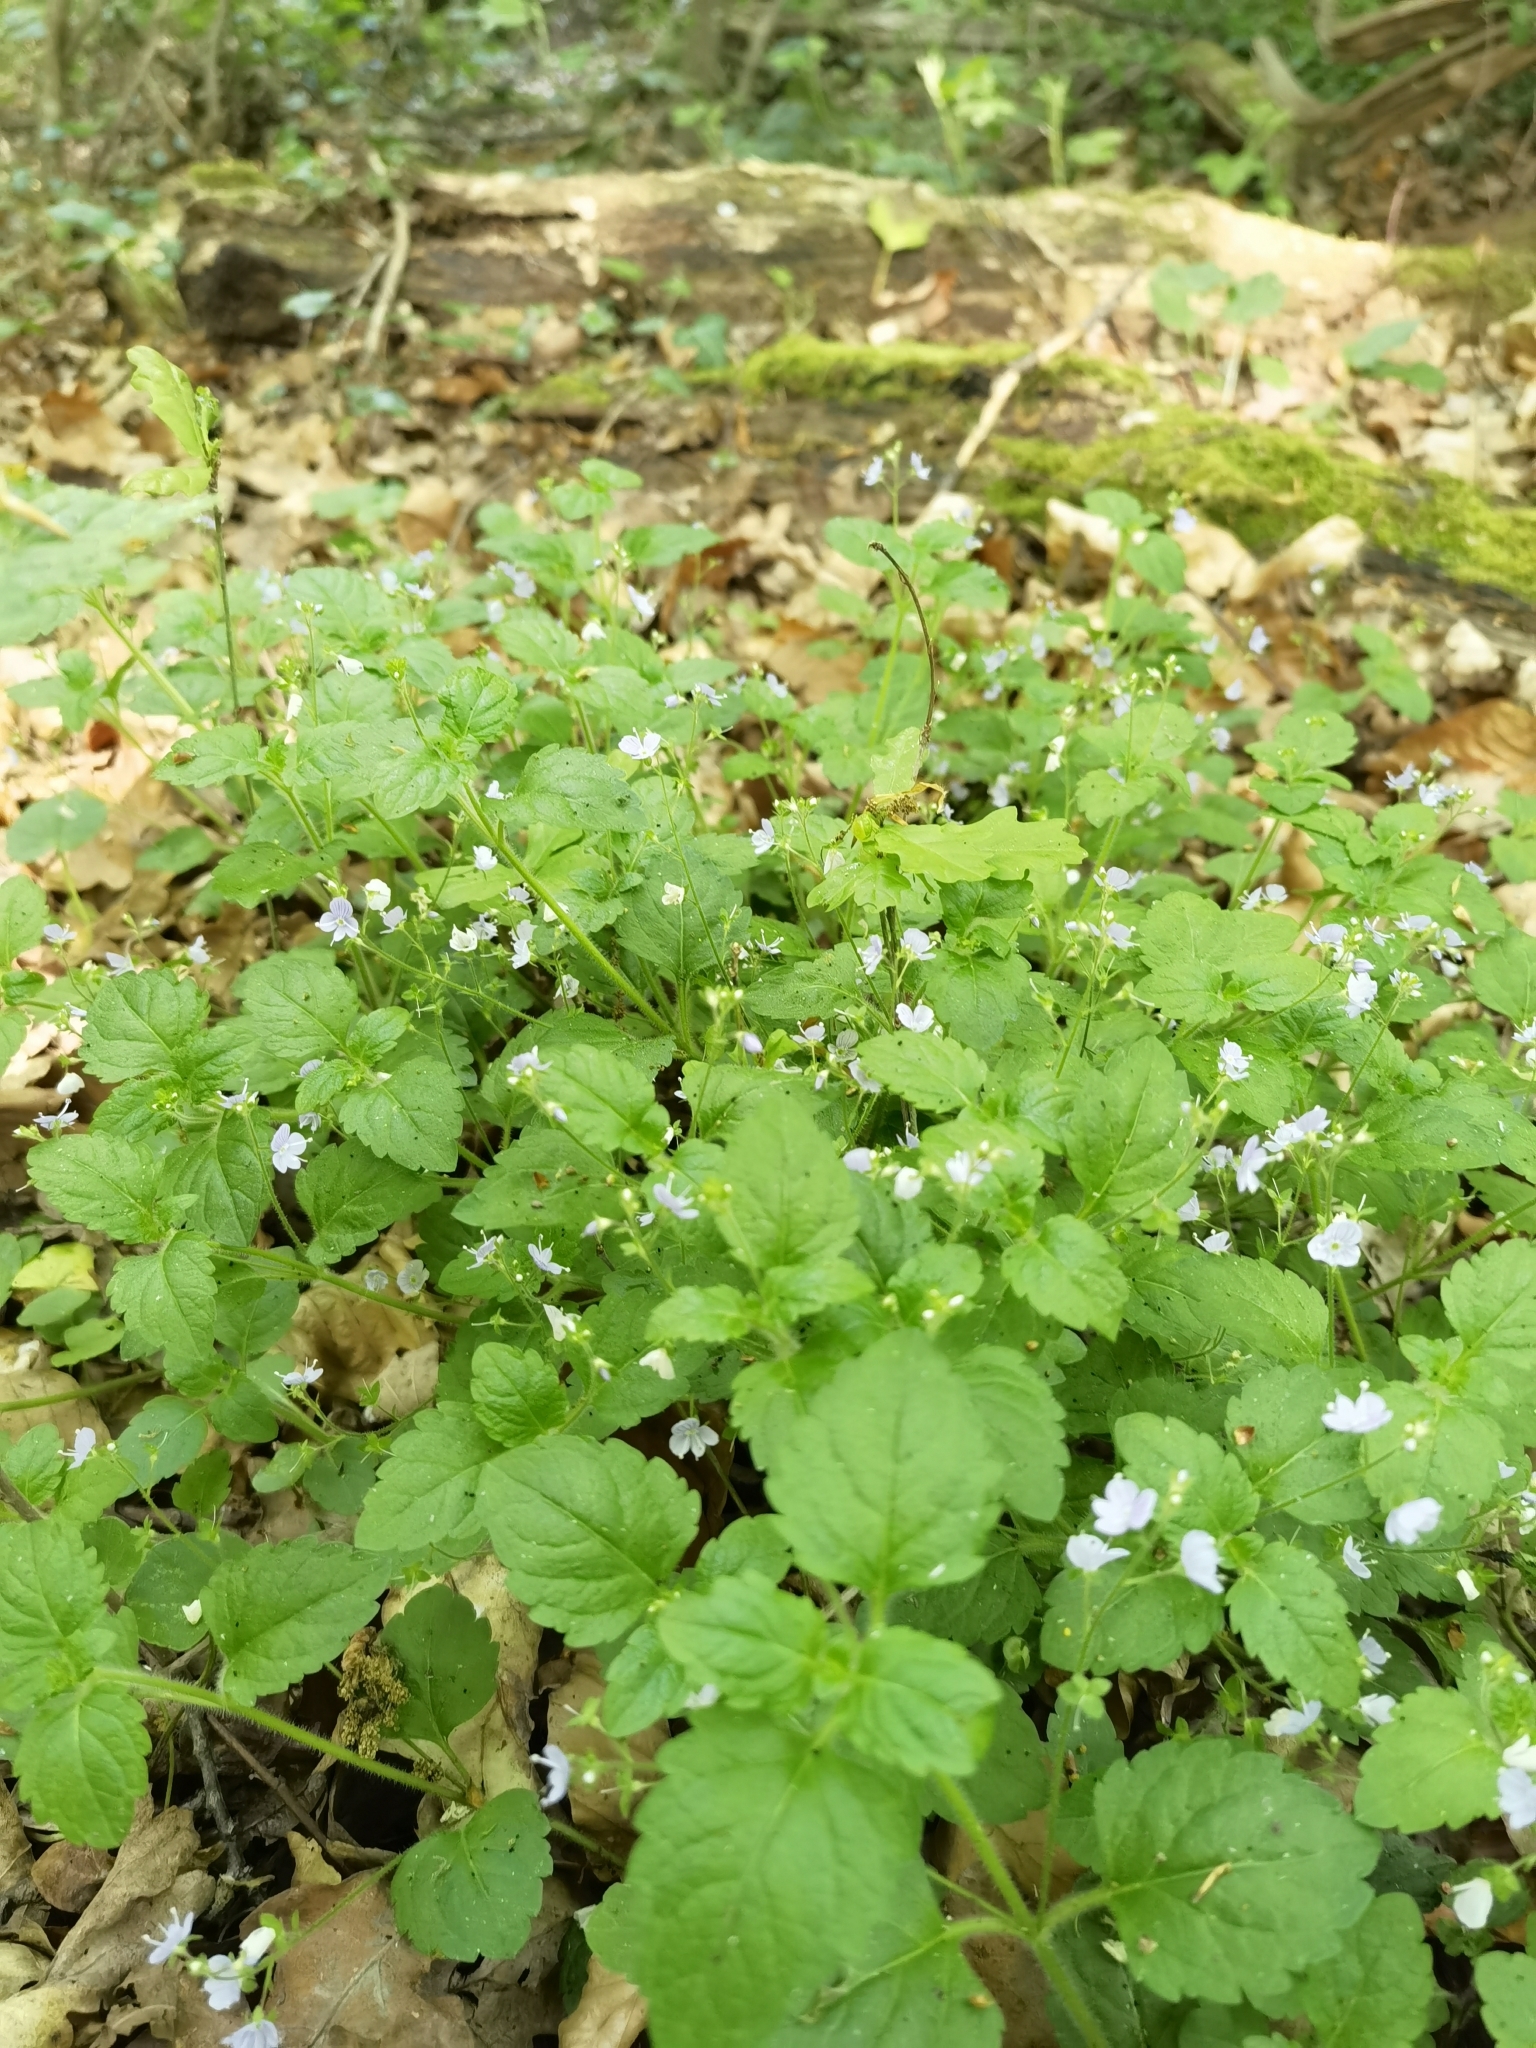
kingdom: Plantae
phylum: Tracheophyta
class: Magnoliopsida
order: Lamiales
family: Plantaginaceae
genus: Veronica
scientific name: Veronica montana
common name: Wood speedwell
